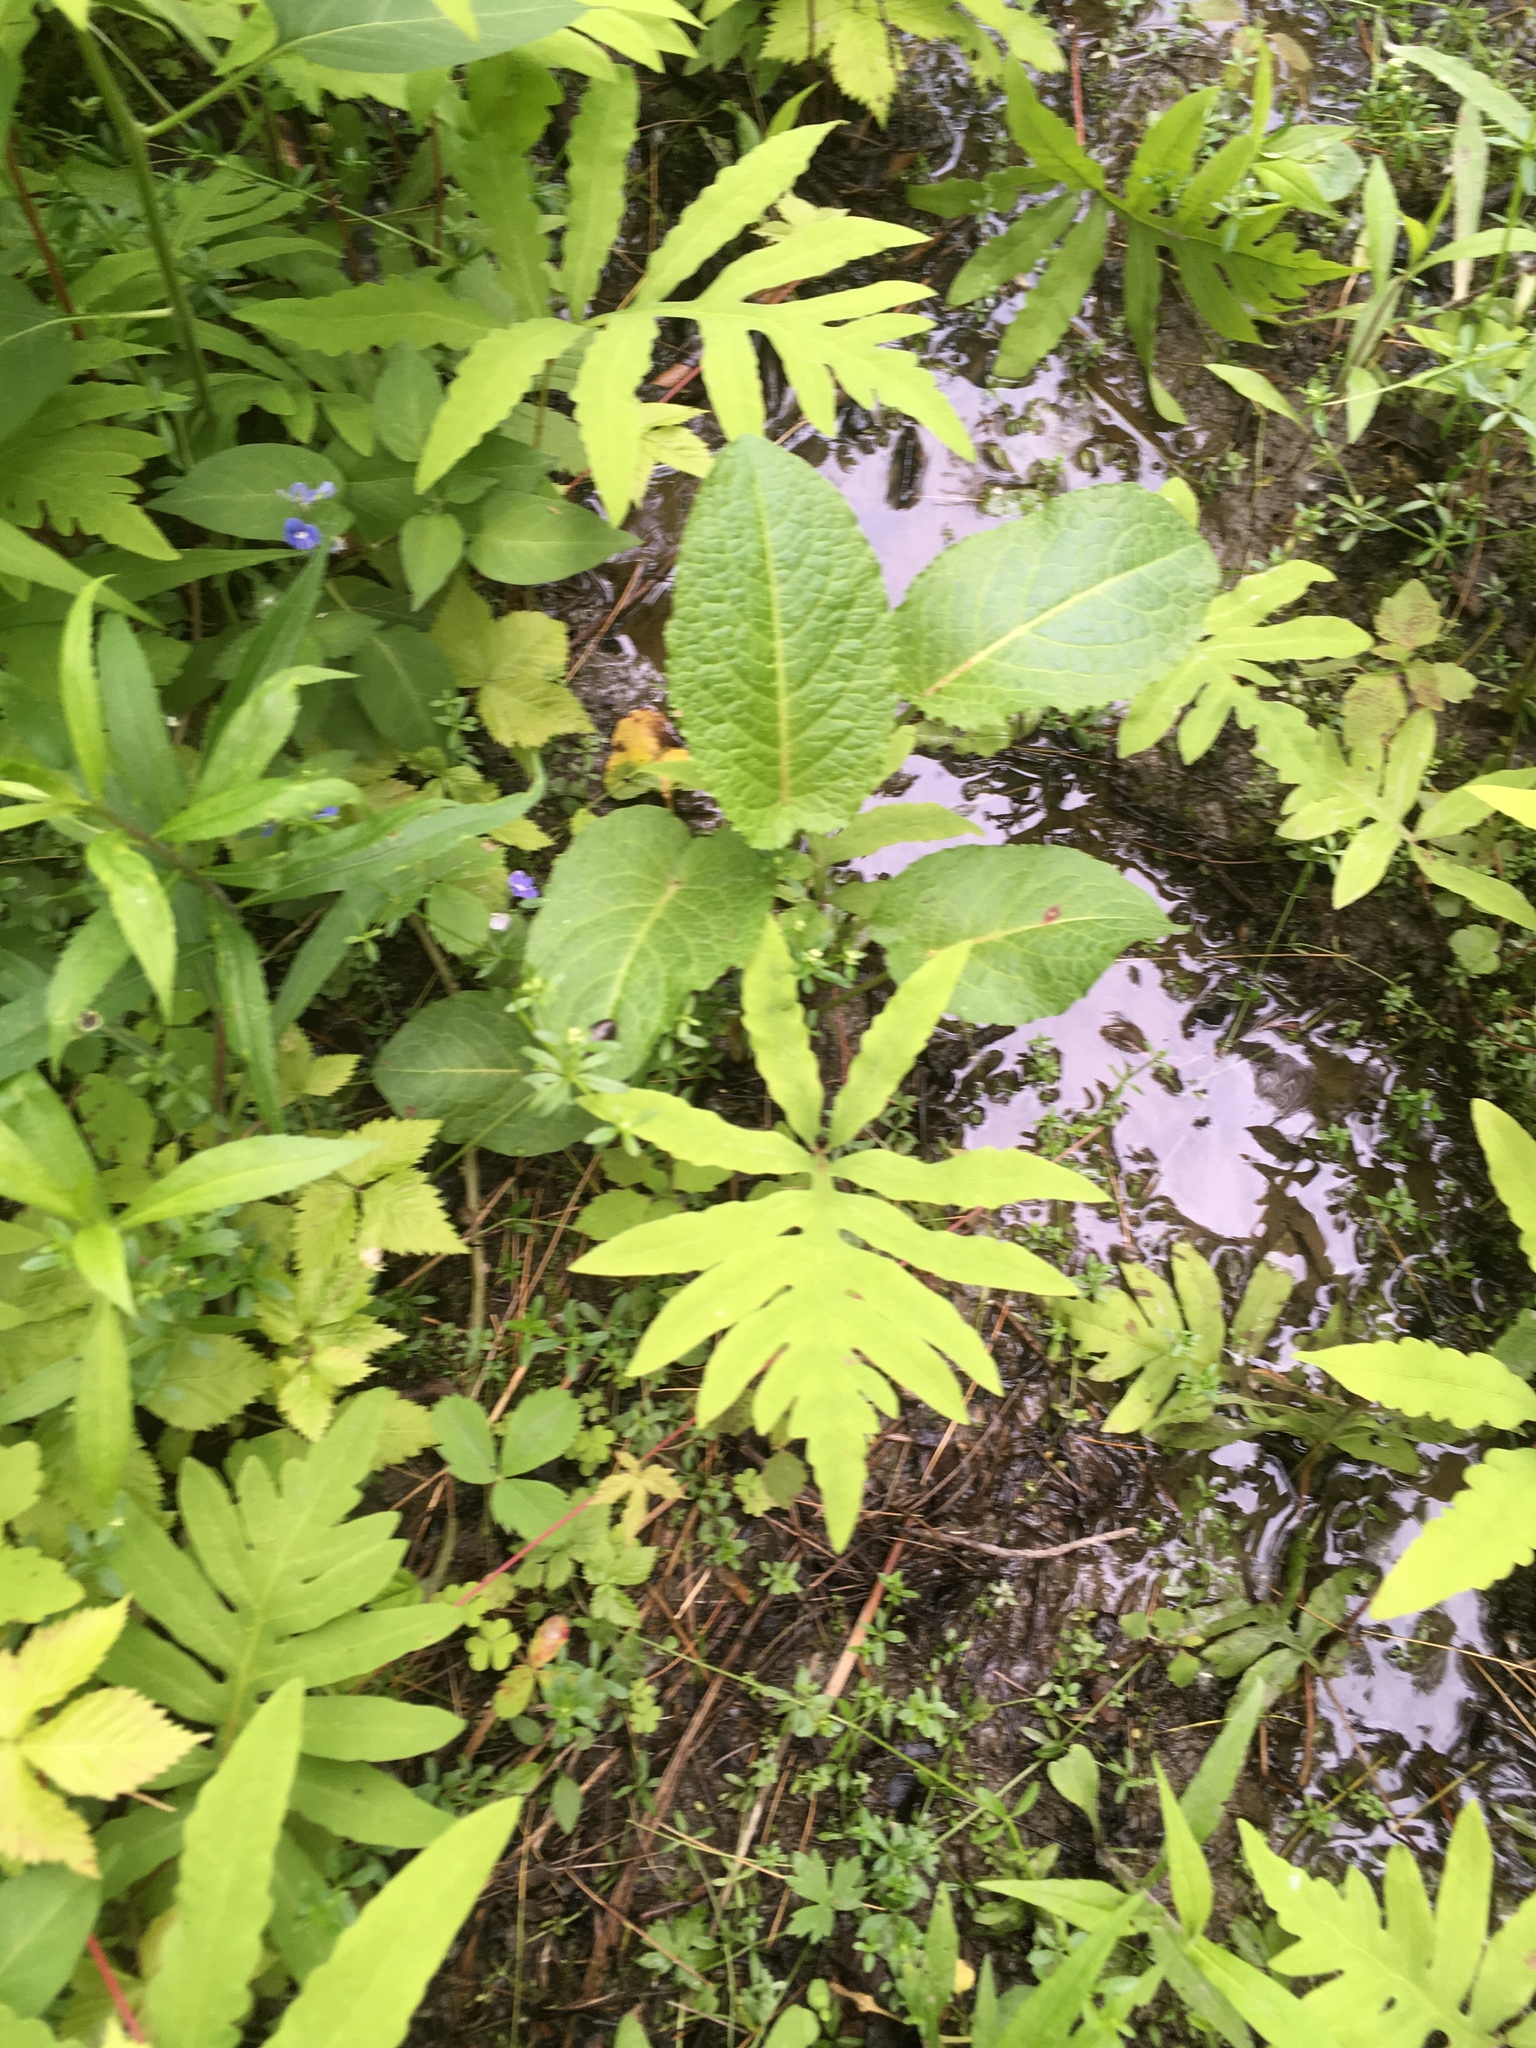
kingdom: Plantae
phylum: Tracheophyta
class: Polypodiopsida
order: Polypodiales
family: Onocleaceae
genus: Onoclea
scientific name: Onoclea sensibilis
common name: Sensitive fern
